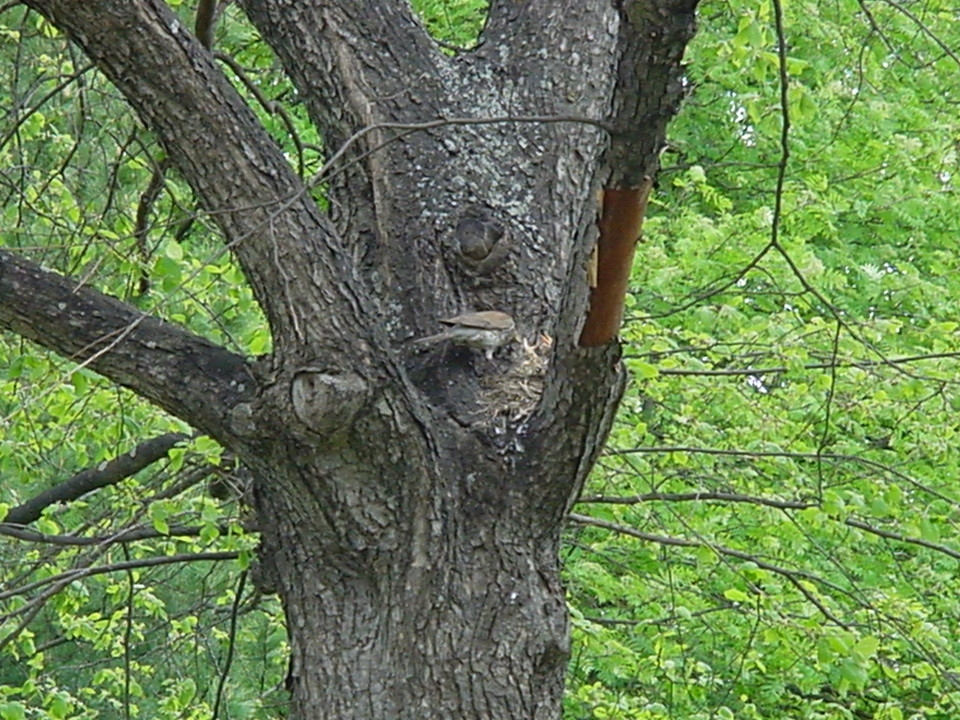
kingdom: Animalia
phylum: Chordata
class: Aves
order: Passeriformes
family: Turdidae
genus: Turdus
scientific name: Turdus pilaris
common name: Fieldfare
